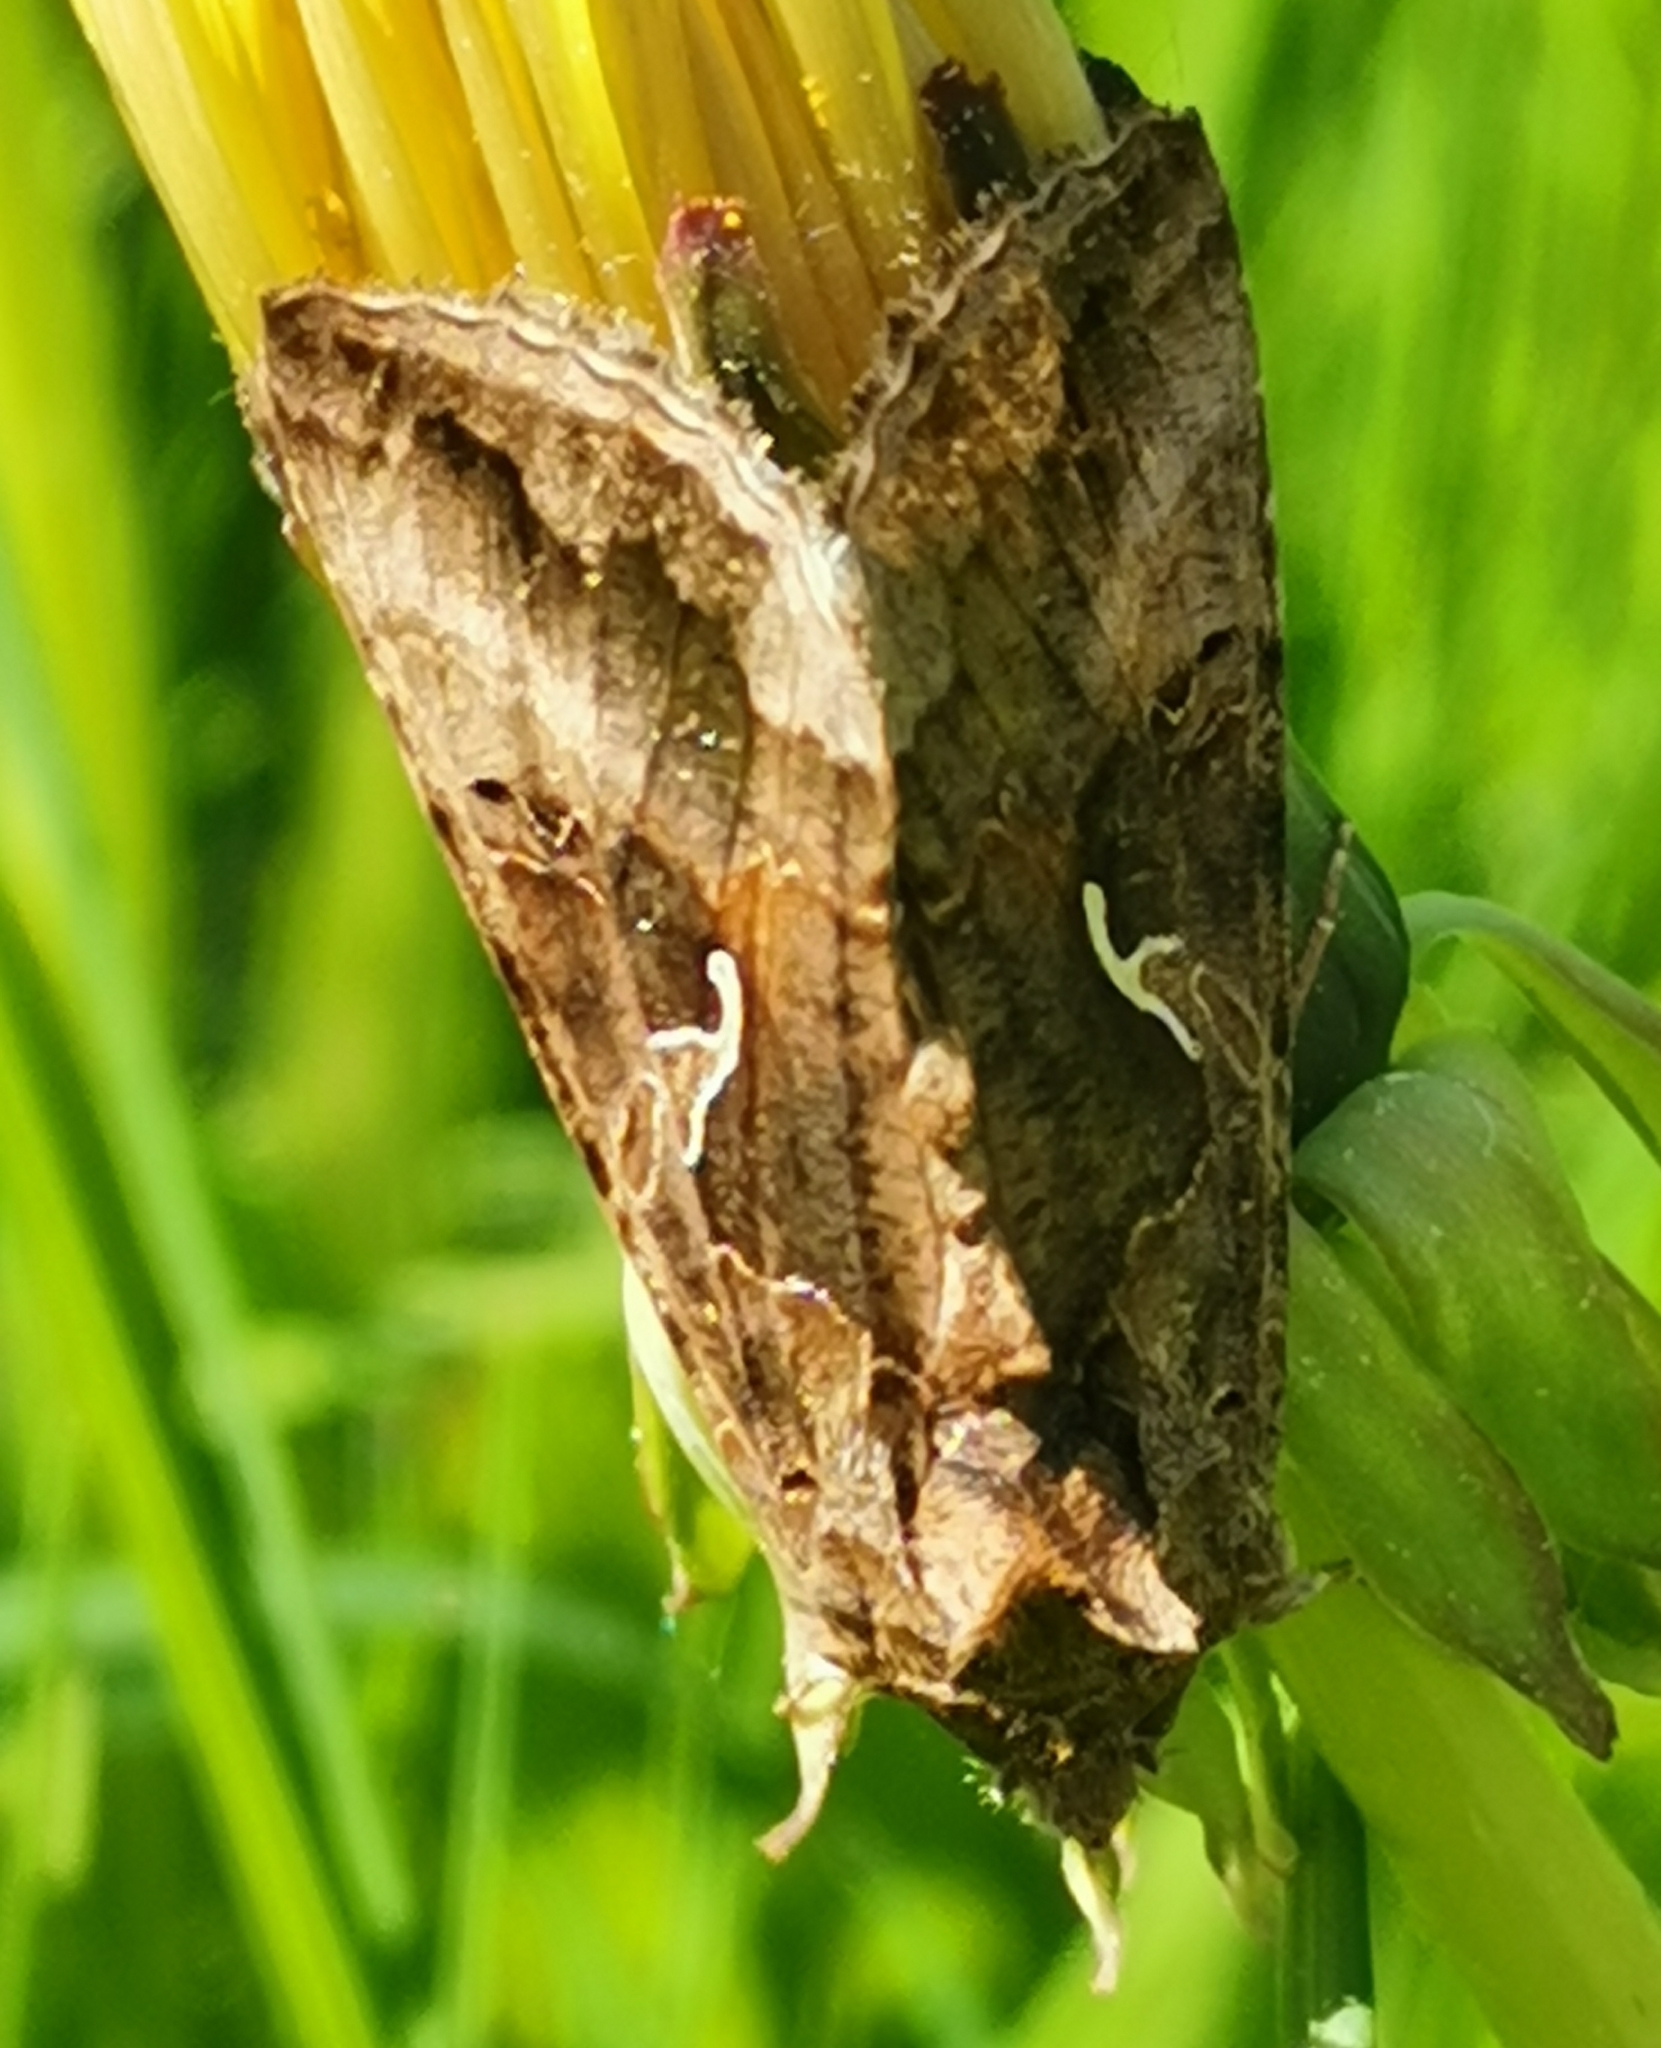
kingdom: Animalia
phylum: Arthropoda
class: Insecta
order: Lepidoptera
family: Noctuidae
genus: Autographa
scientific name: Autographa gamma
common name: Silver y
